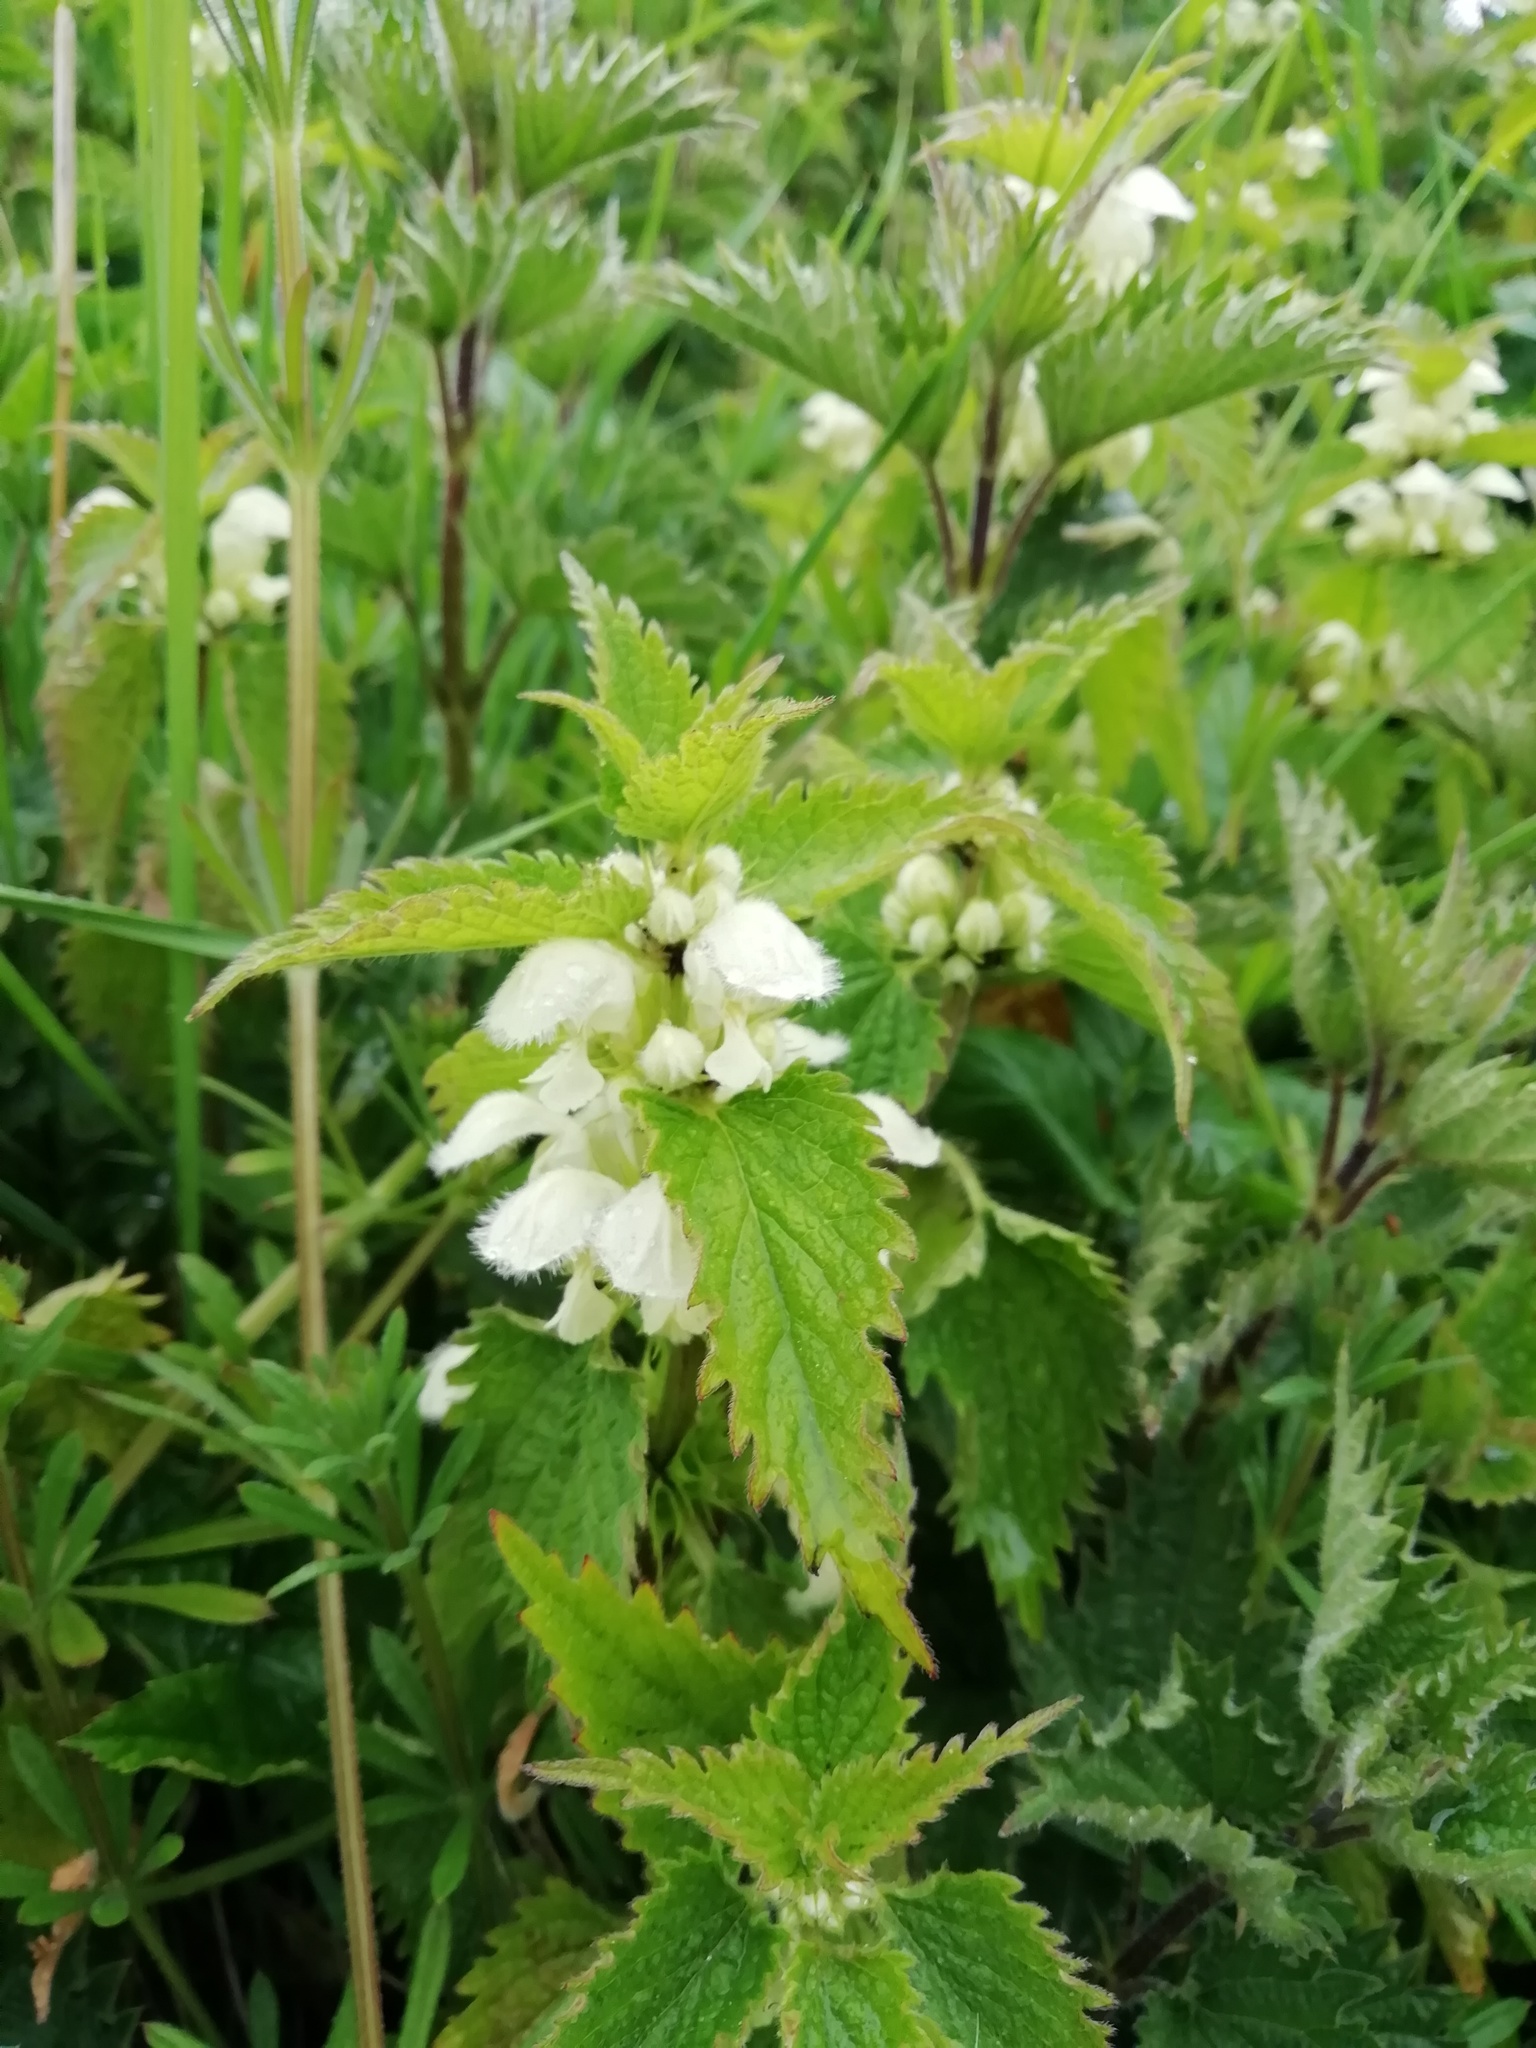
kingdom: Plantae
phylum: Tracheophyta
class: Magnoliopsida
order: Lamiales
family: Lamiaceae
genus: Lamium
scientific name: Lamium album
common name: White dead-nettle
